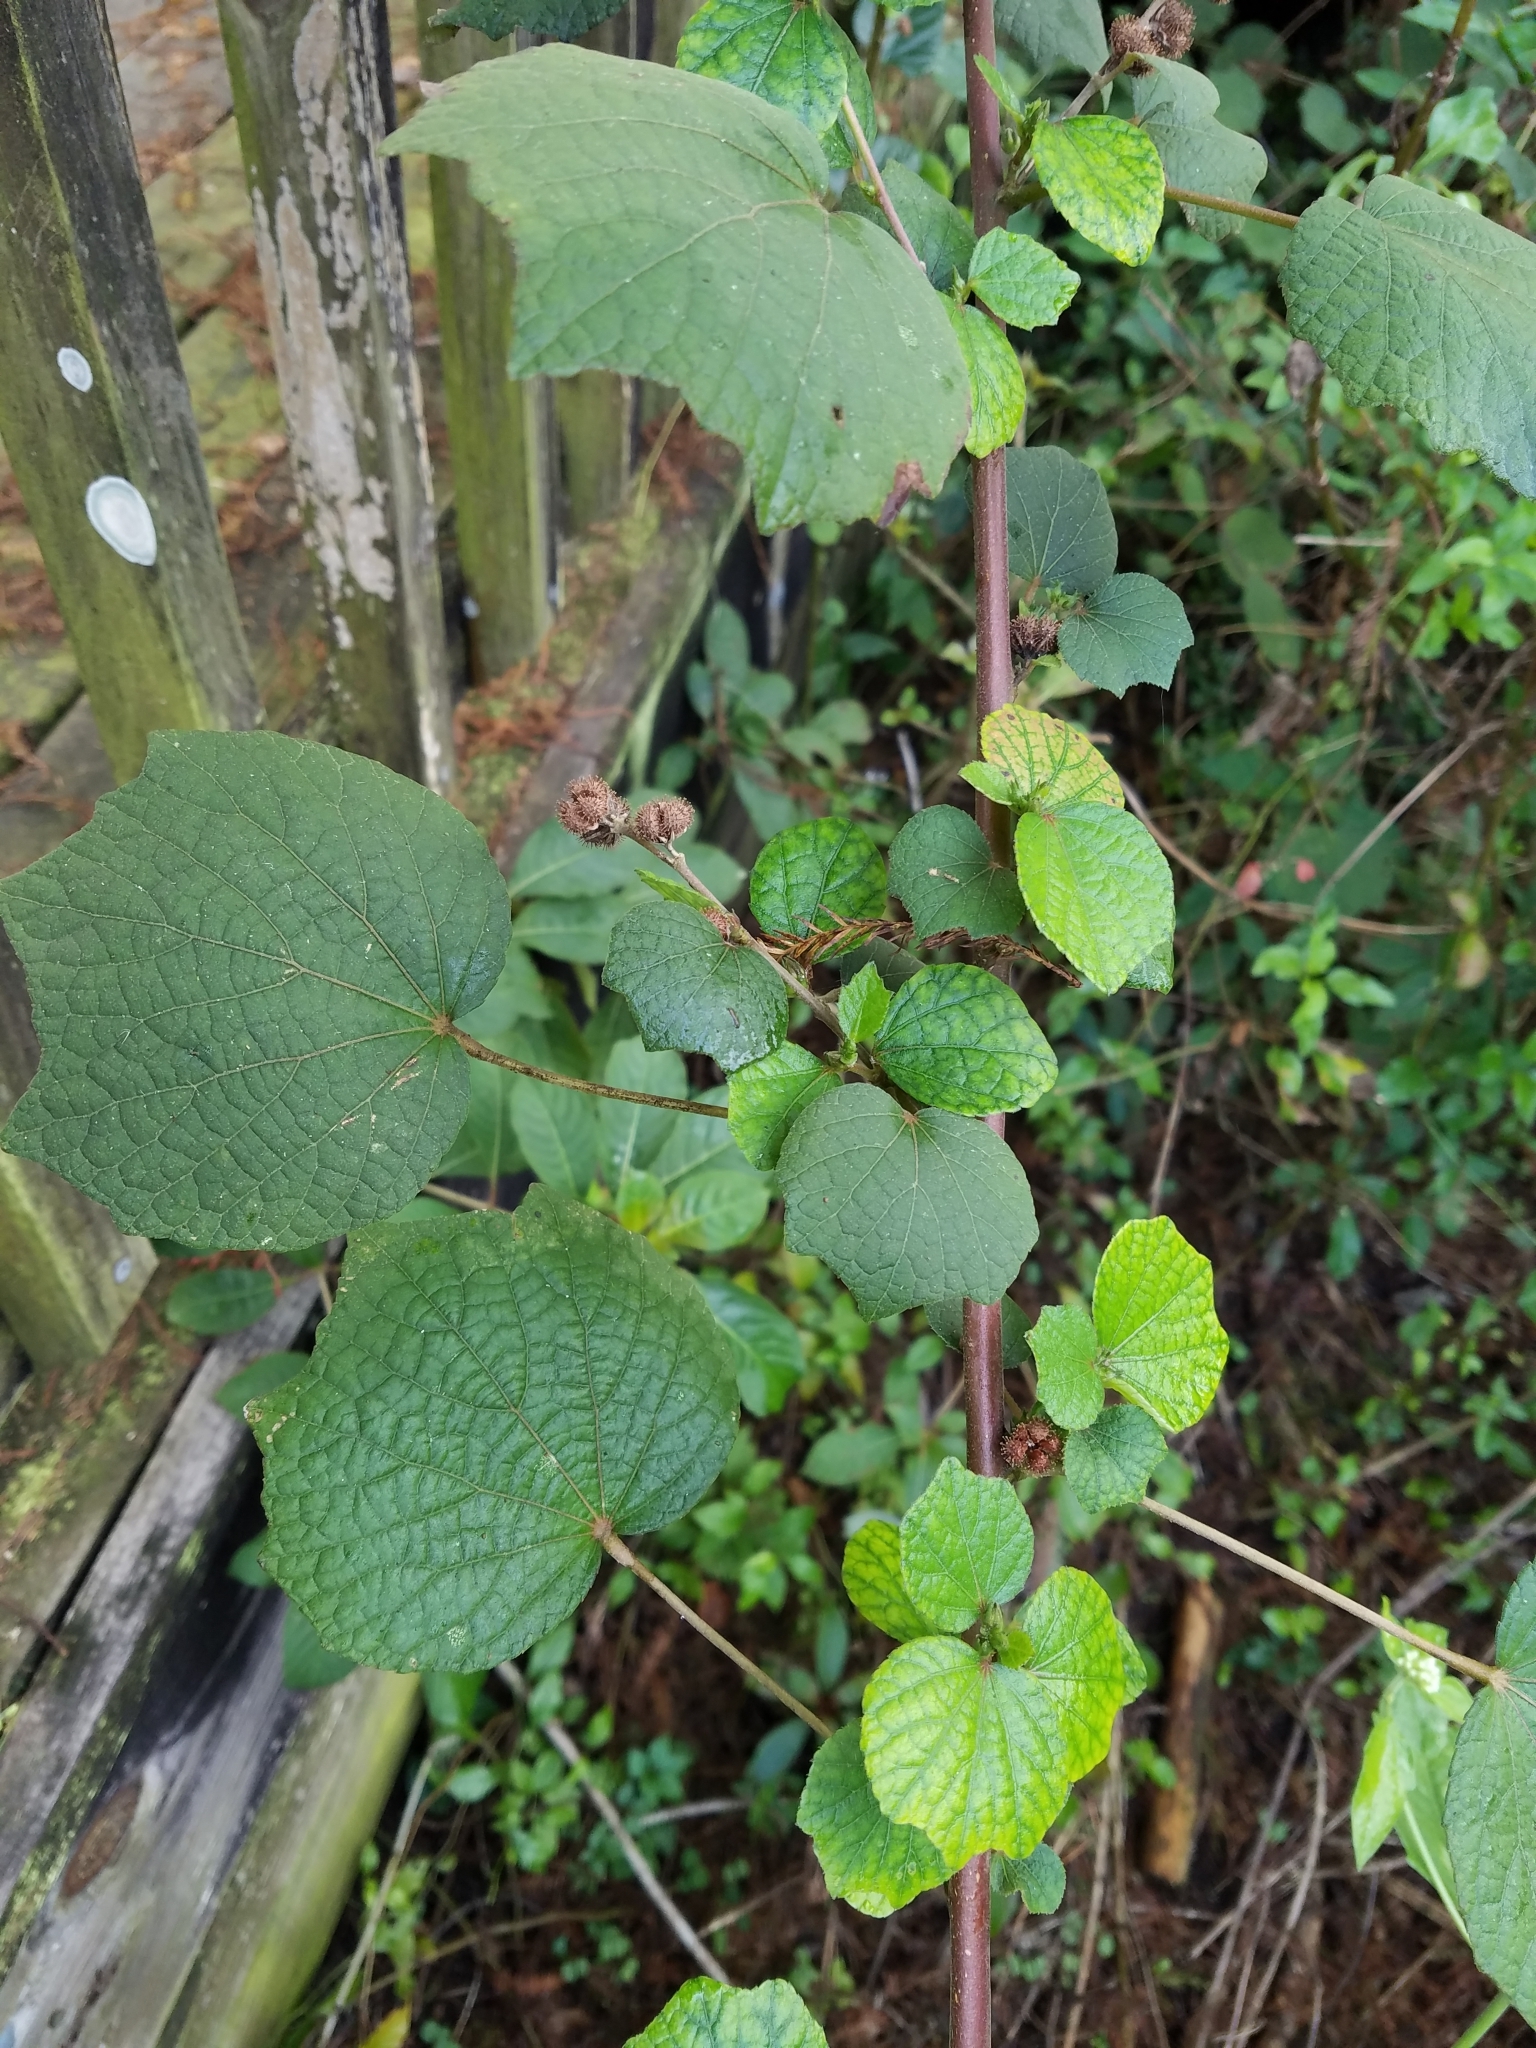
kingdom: Plantae
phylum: Tracheophyta
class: Magnoliopsida
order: Malvales
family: Malvaceae
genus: Urena
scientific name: Urena lobata
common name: Caesarweed
